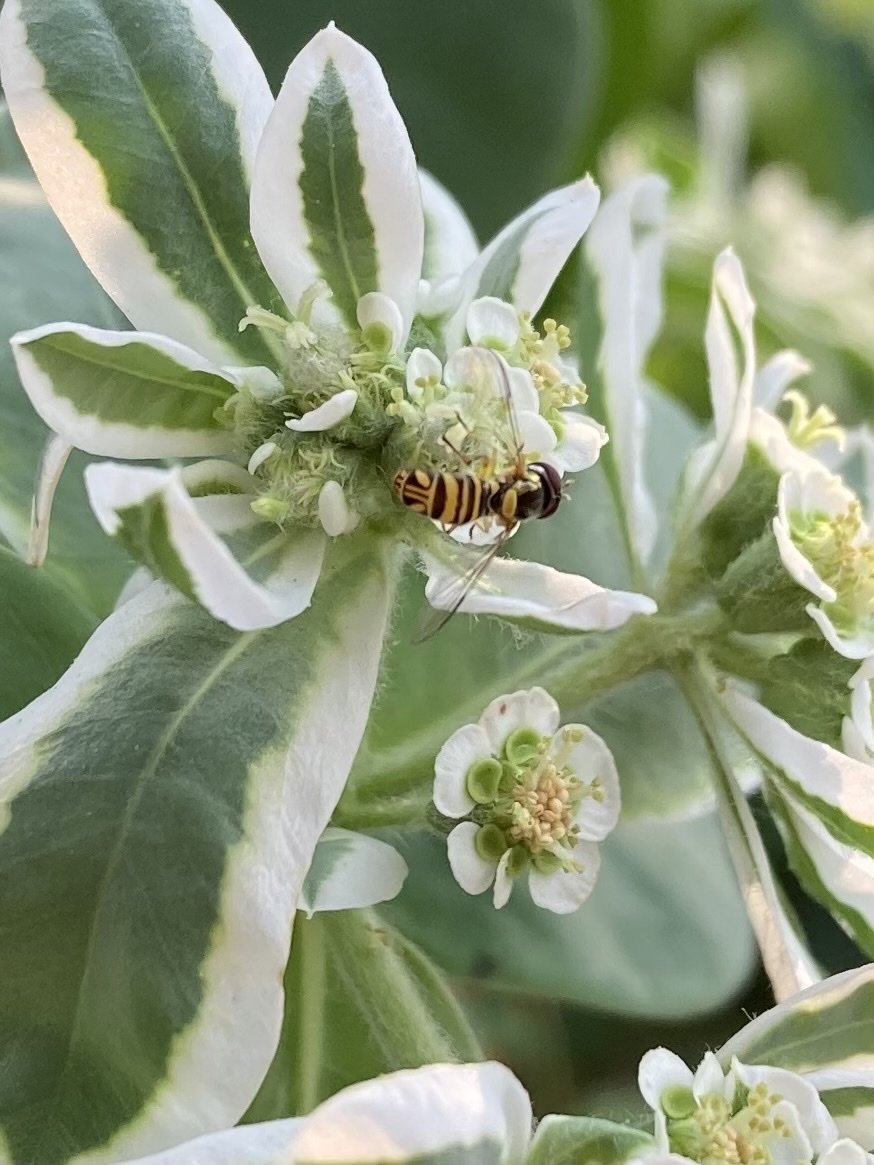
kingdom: Animalia
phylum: Arthropoda
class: Insecta
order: Diptera
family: Syrphidae
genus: Allograpta
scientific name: Allograpta obliqua
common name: Common oblique syrphid
